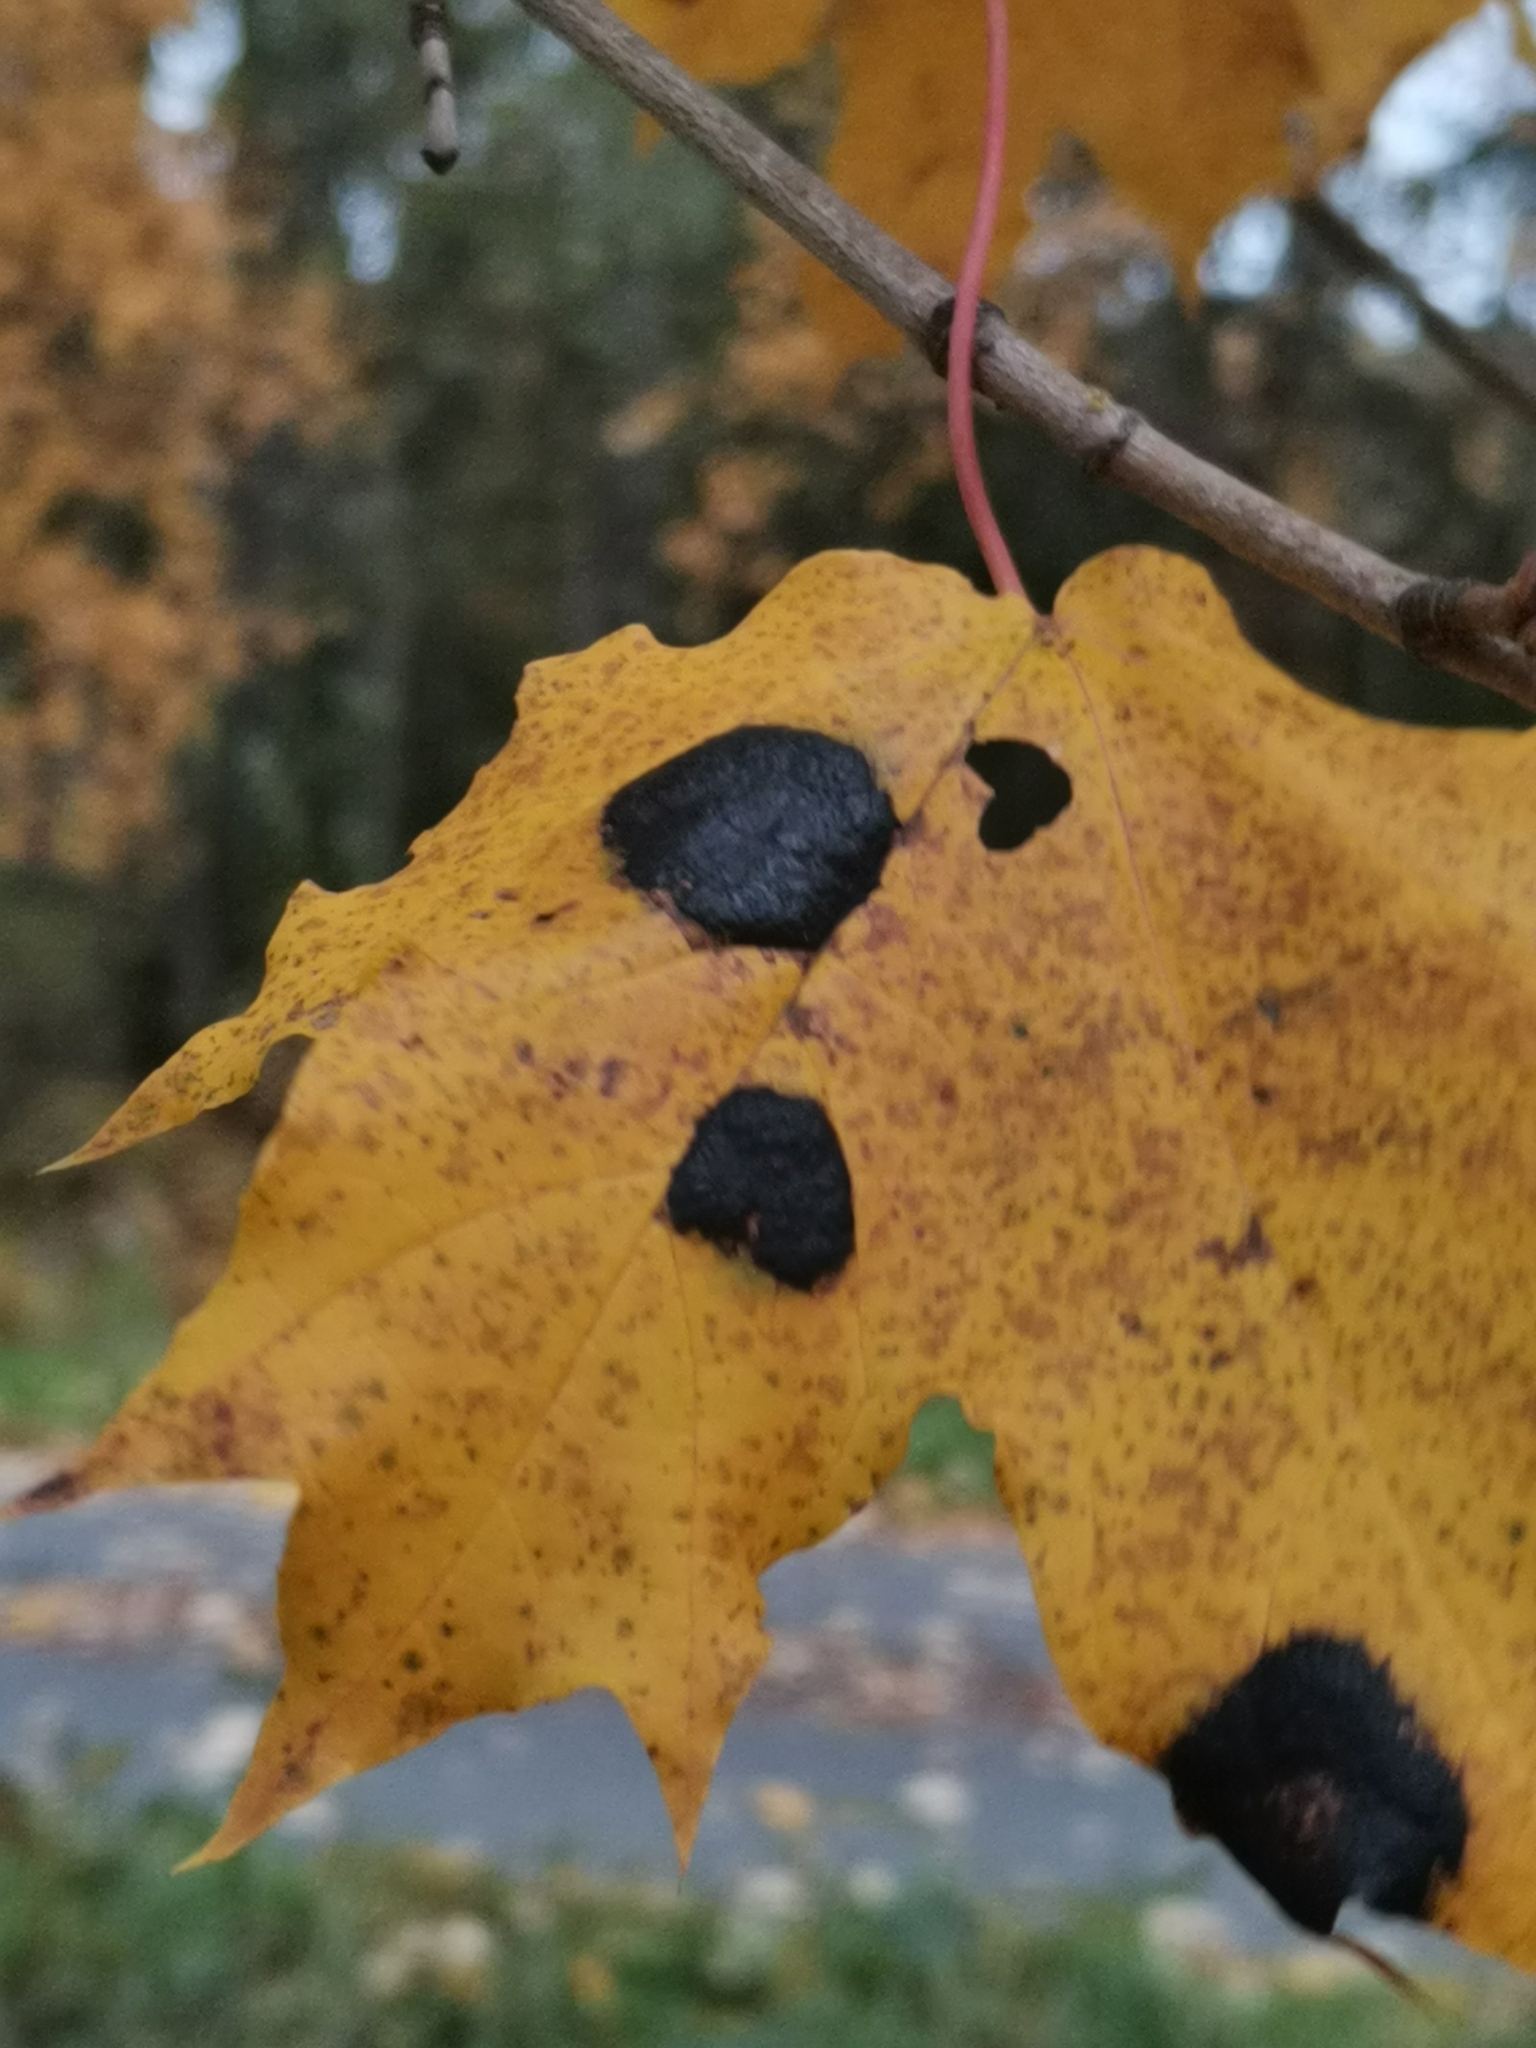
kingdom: Fungi
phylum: Ascomycota
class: Leotiomycetes
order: Rhytismatales
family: Rhytismataceae
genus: Rhytisma
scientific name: Rhytisma acerinum
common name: European tar spot
